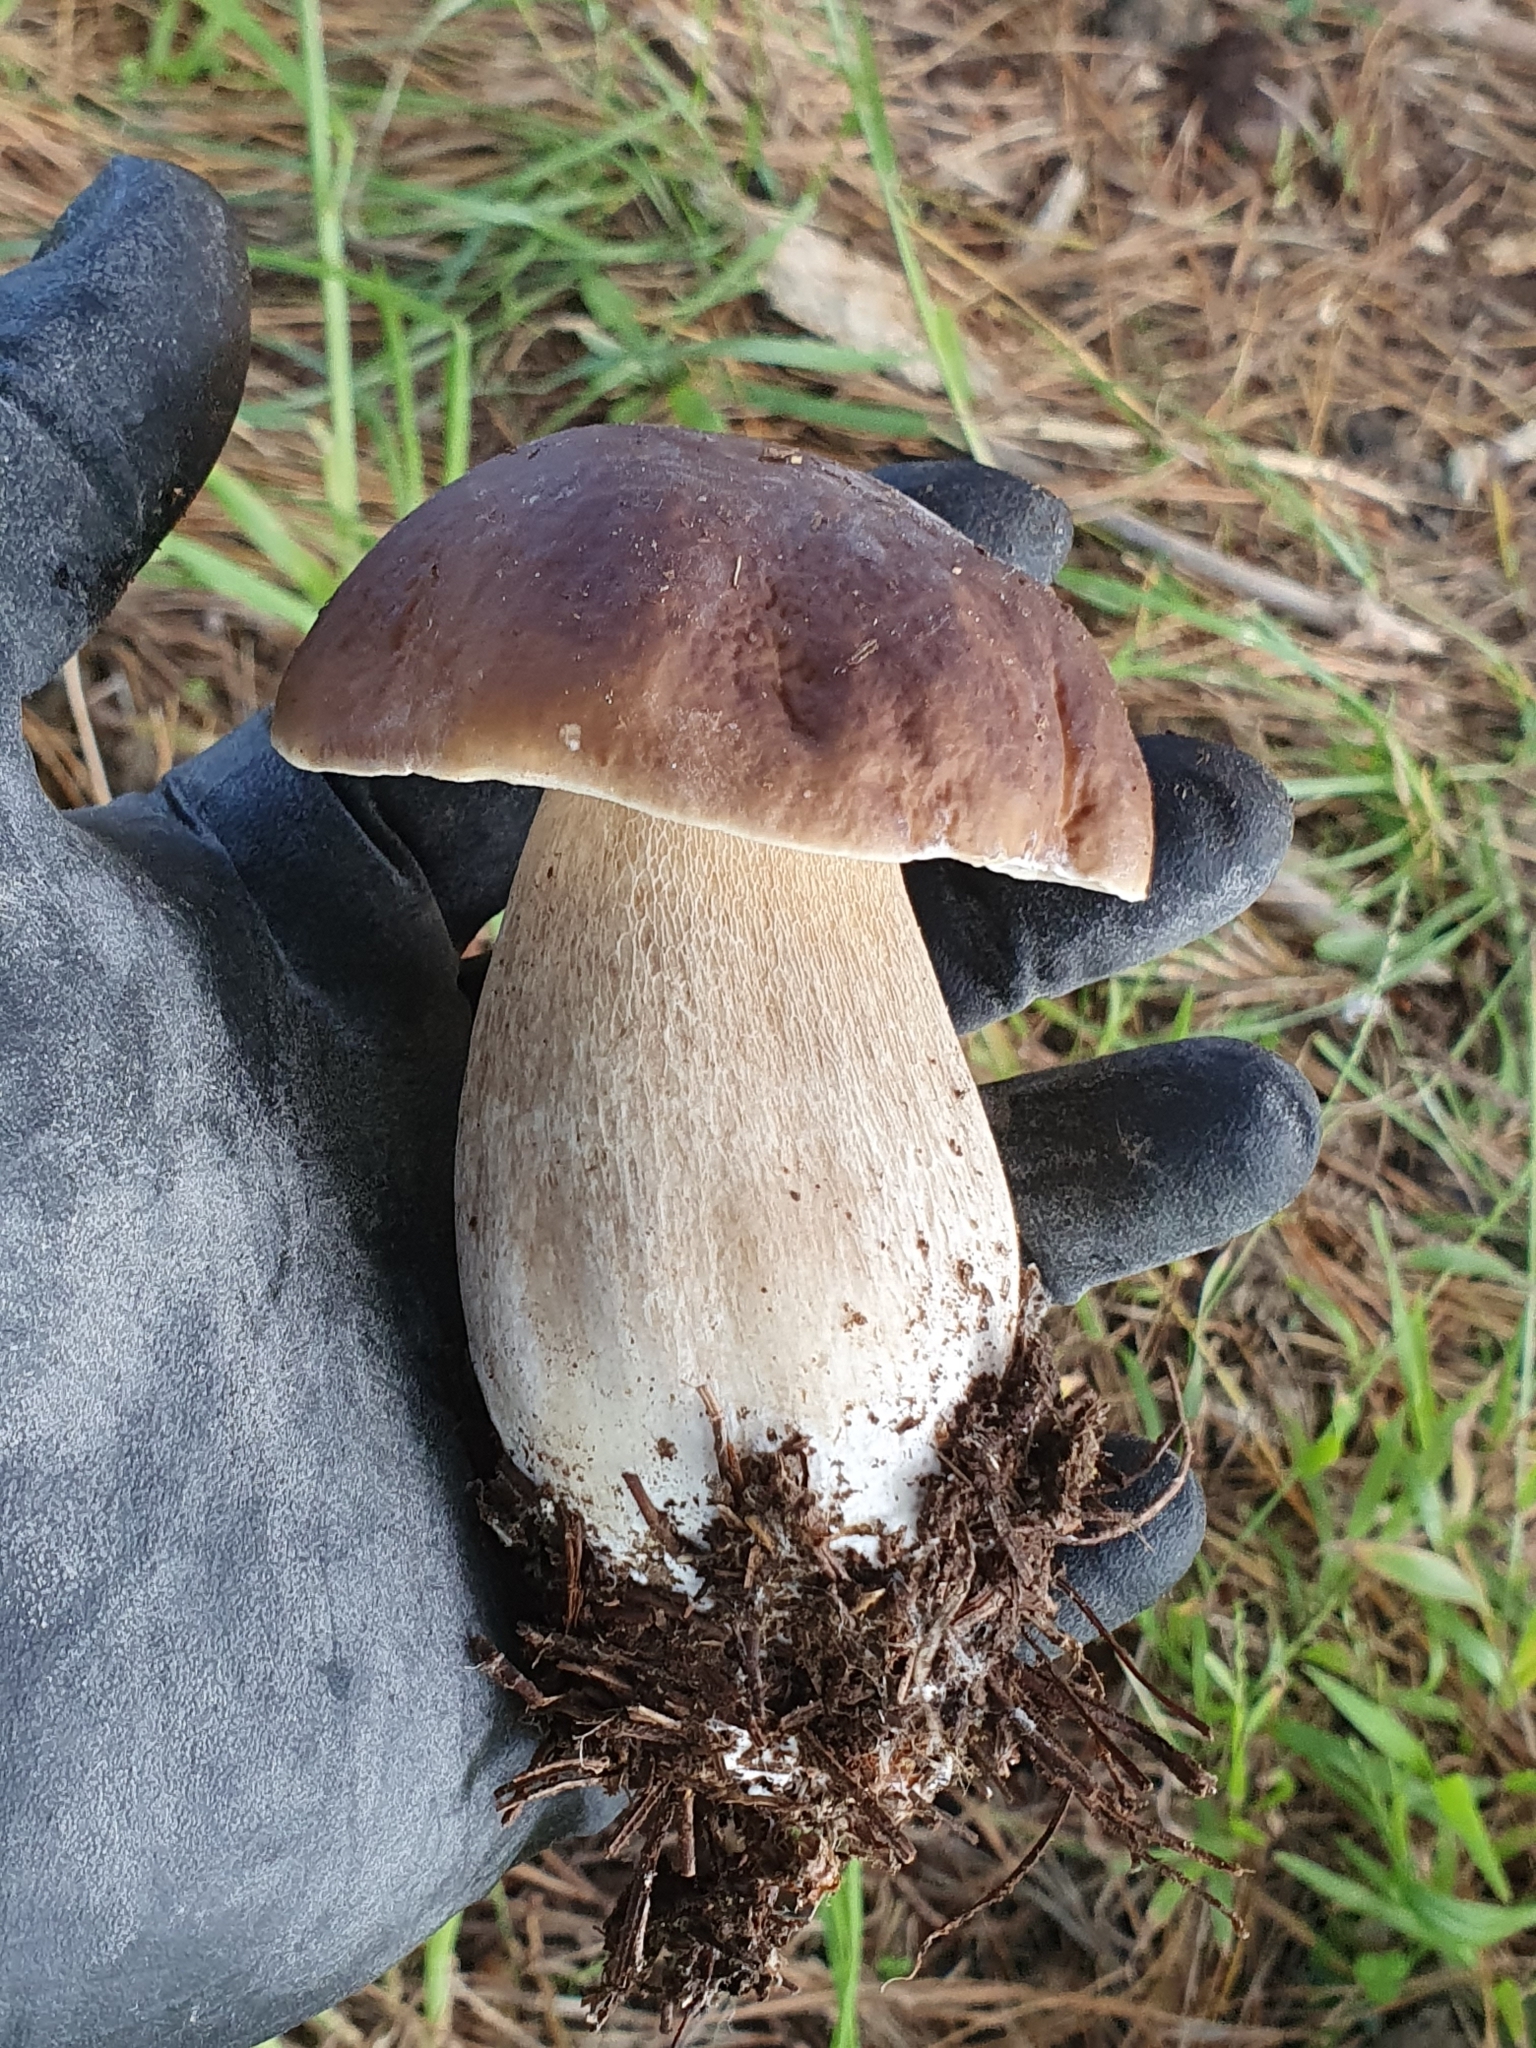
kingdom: Fungi
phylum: Basidiomycota
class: Agaricomycetes
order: Boletales
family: Boletaceae
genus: Boletus
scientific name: Boletus edulis
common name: Cep
